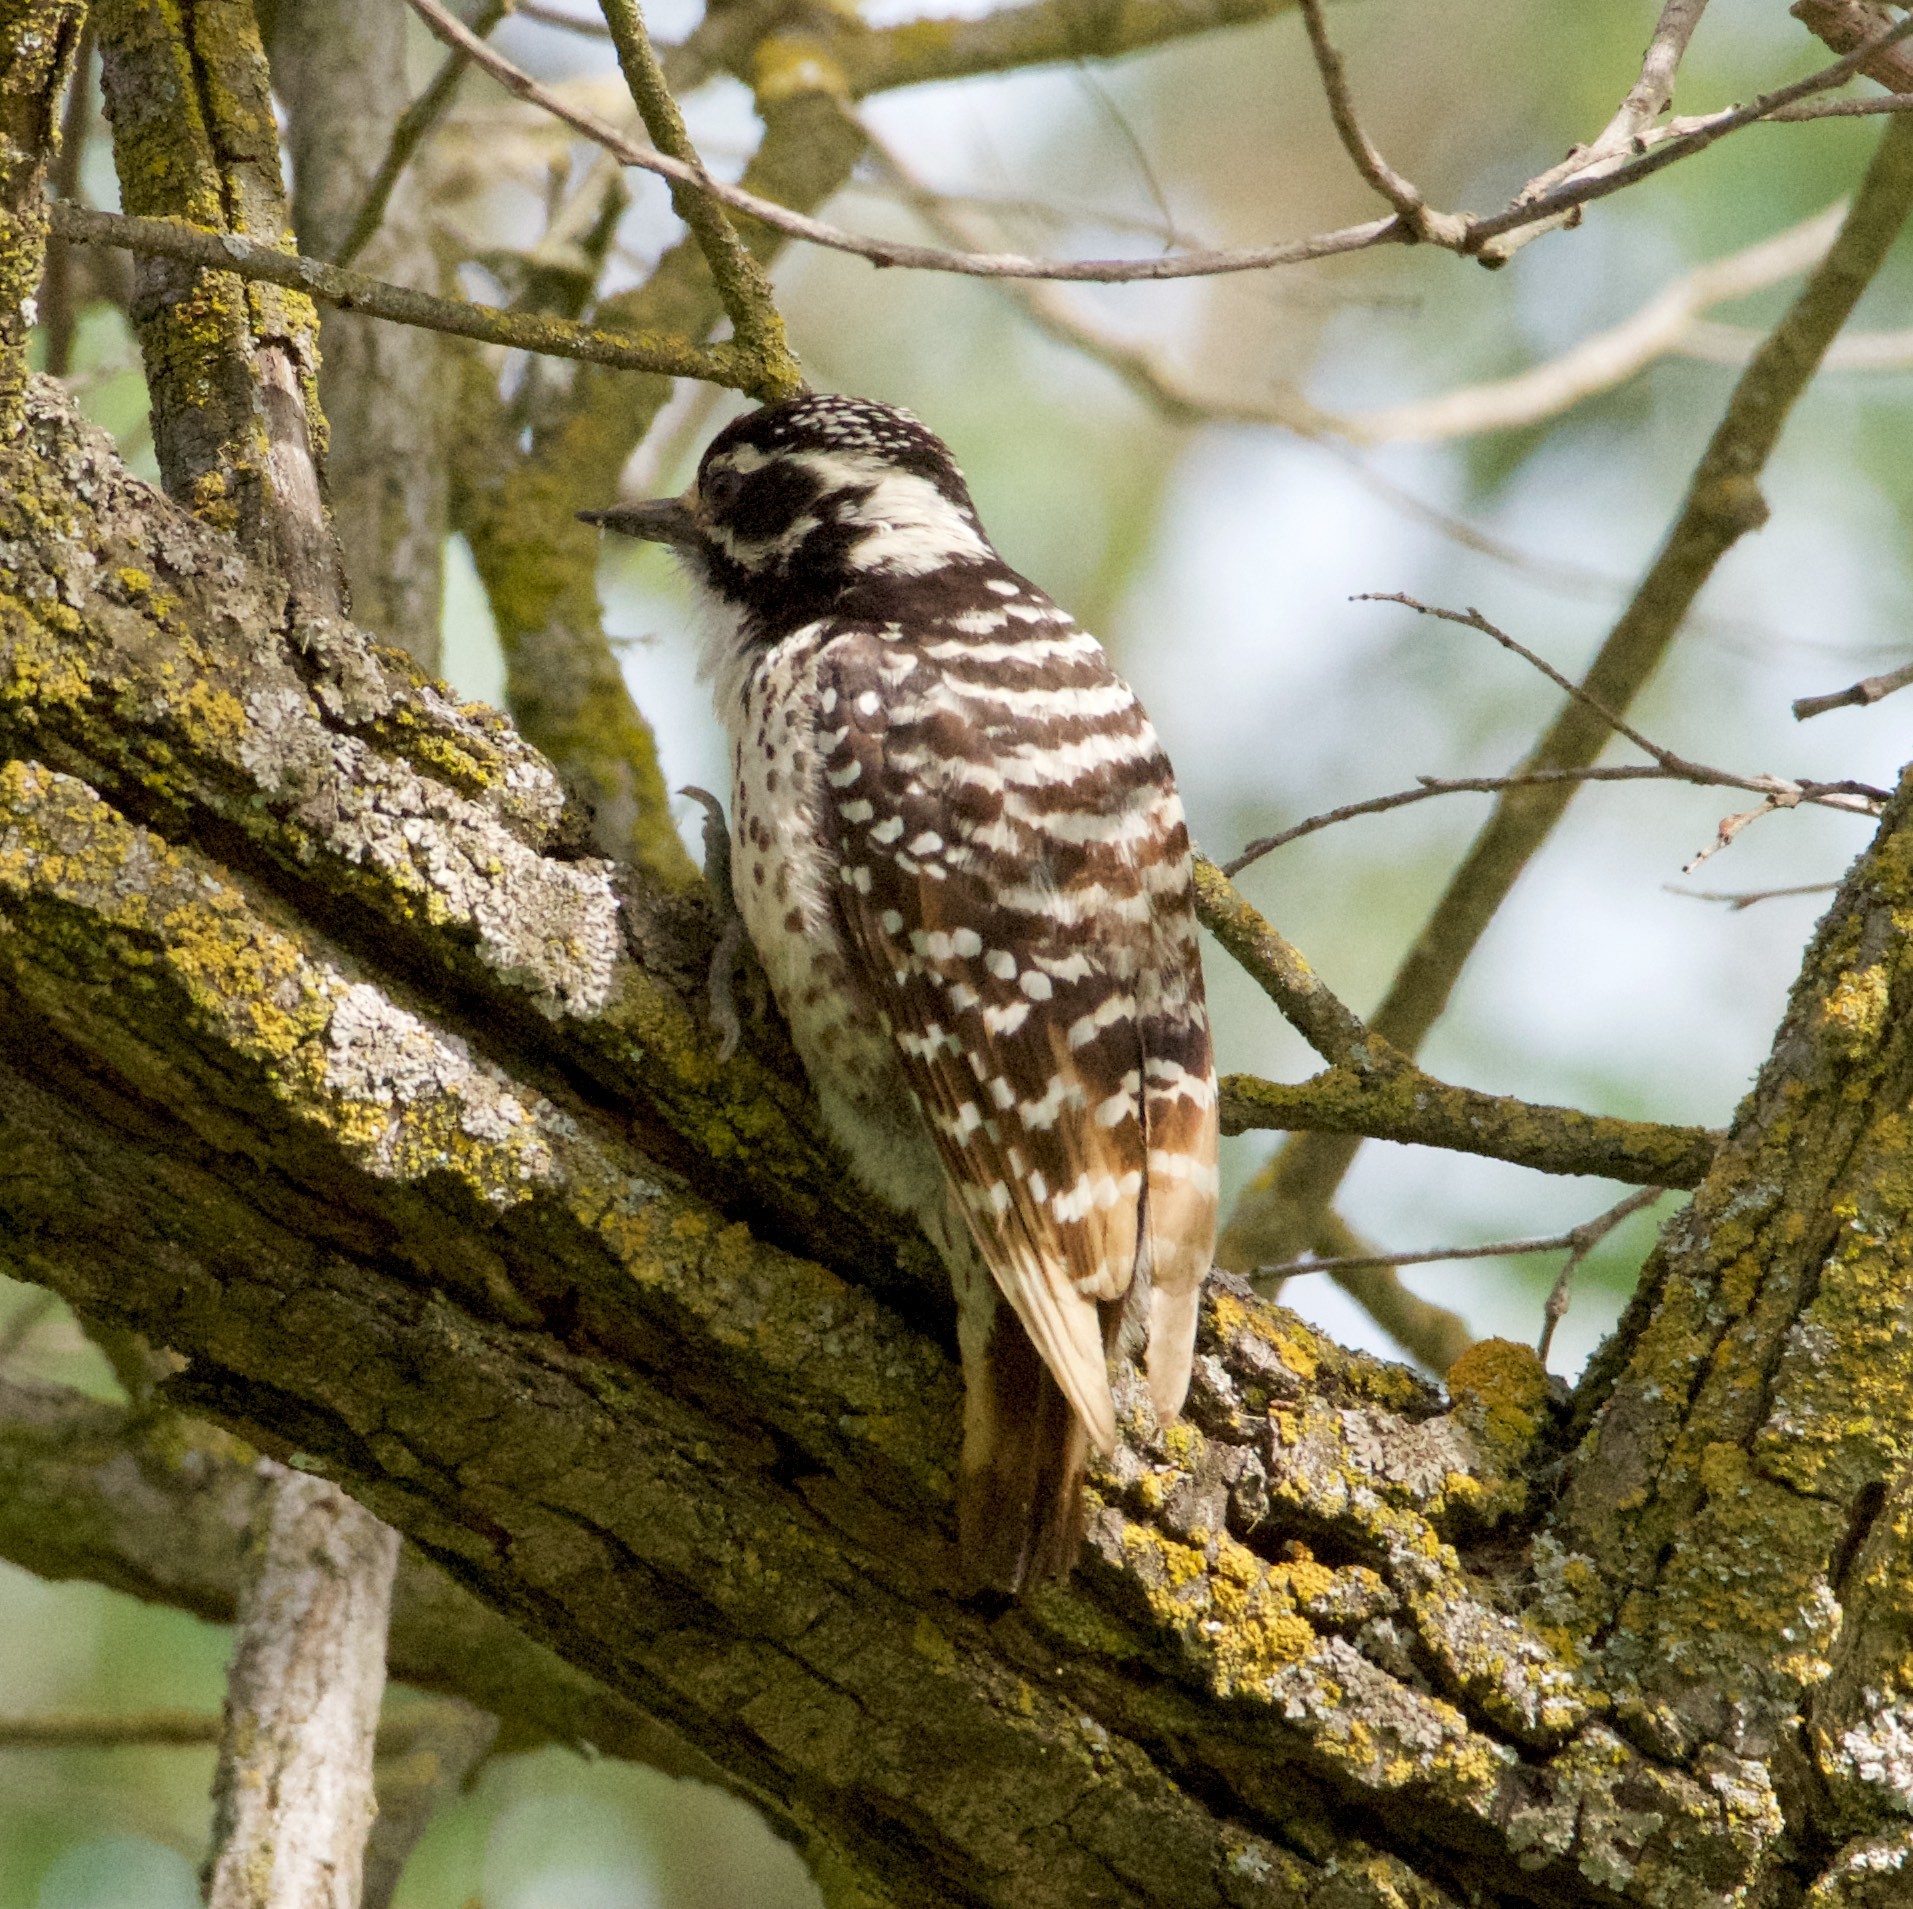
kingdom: Animalia
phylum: Chordata
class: Aves
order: Piciformes
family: Picidae
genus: Dryobates
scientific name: Dryobates nuttallii
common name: Nuttall's woodpecker
